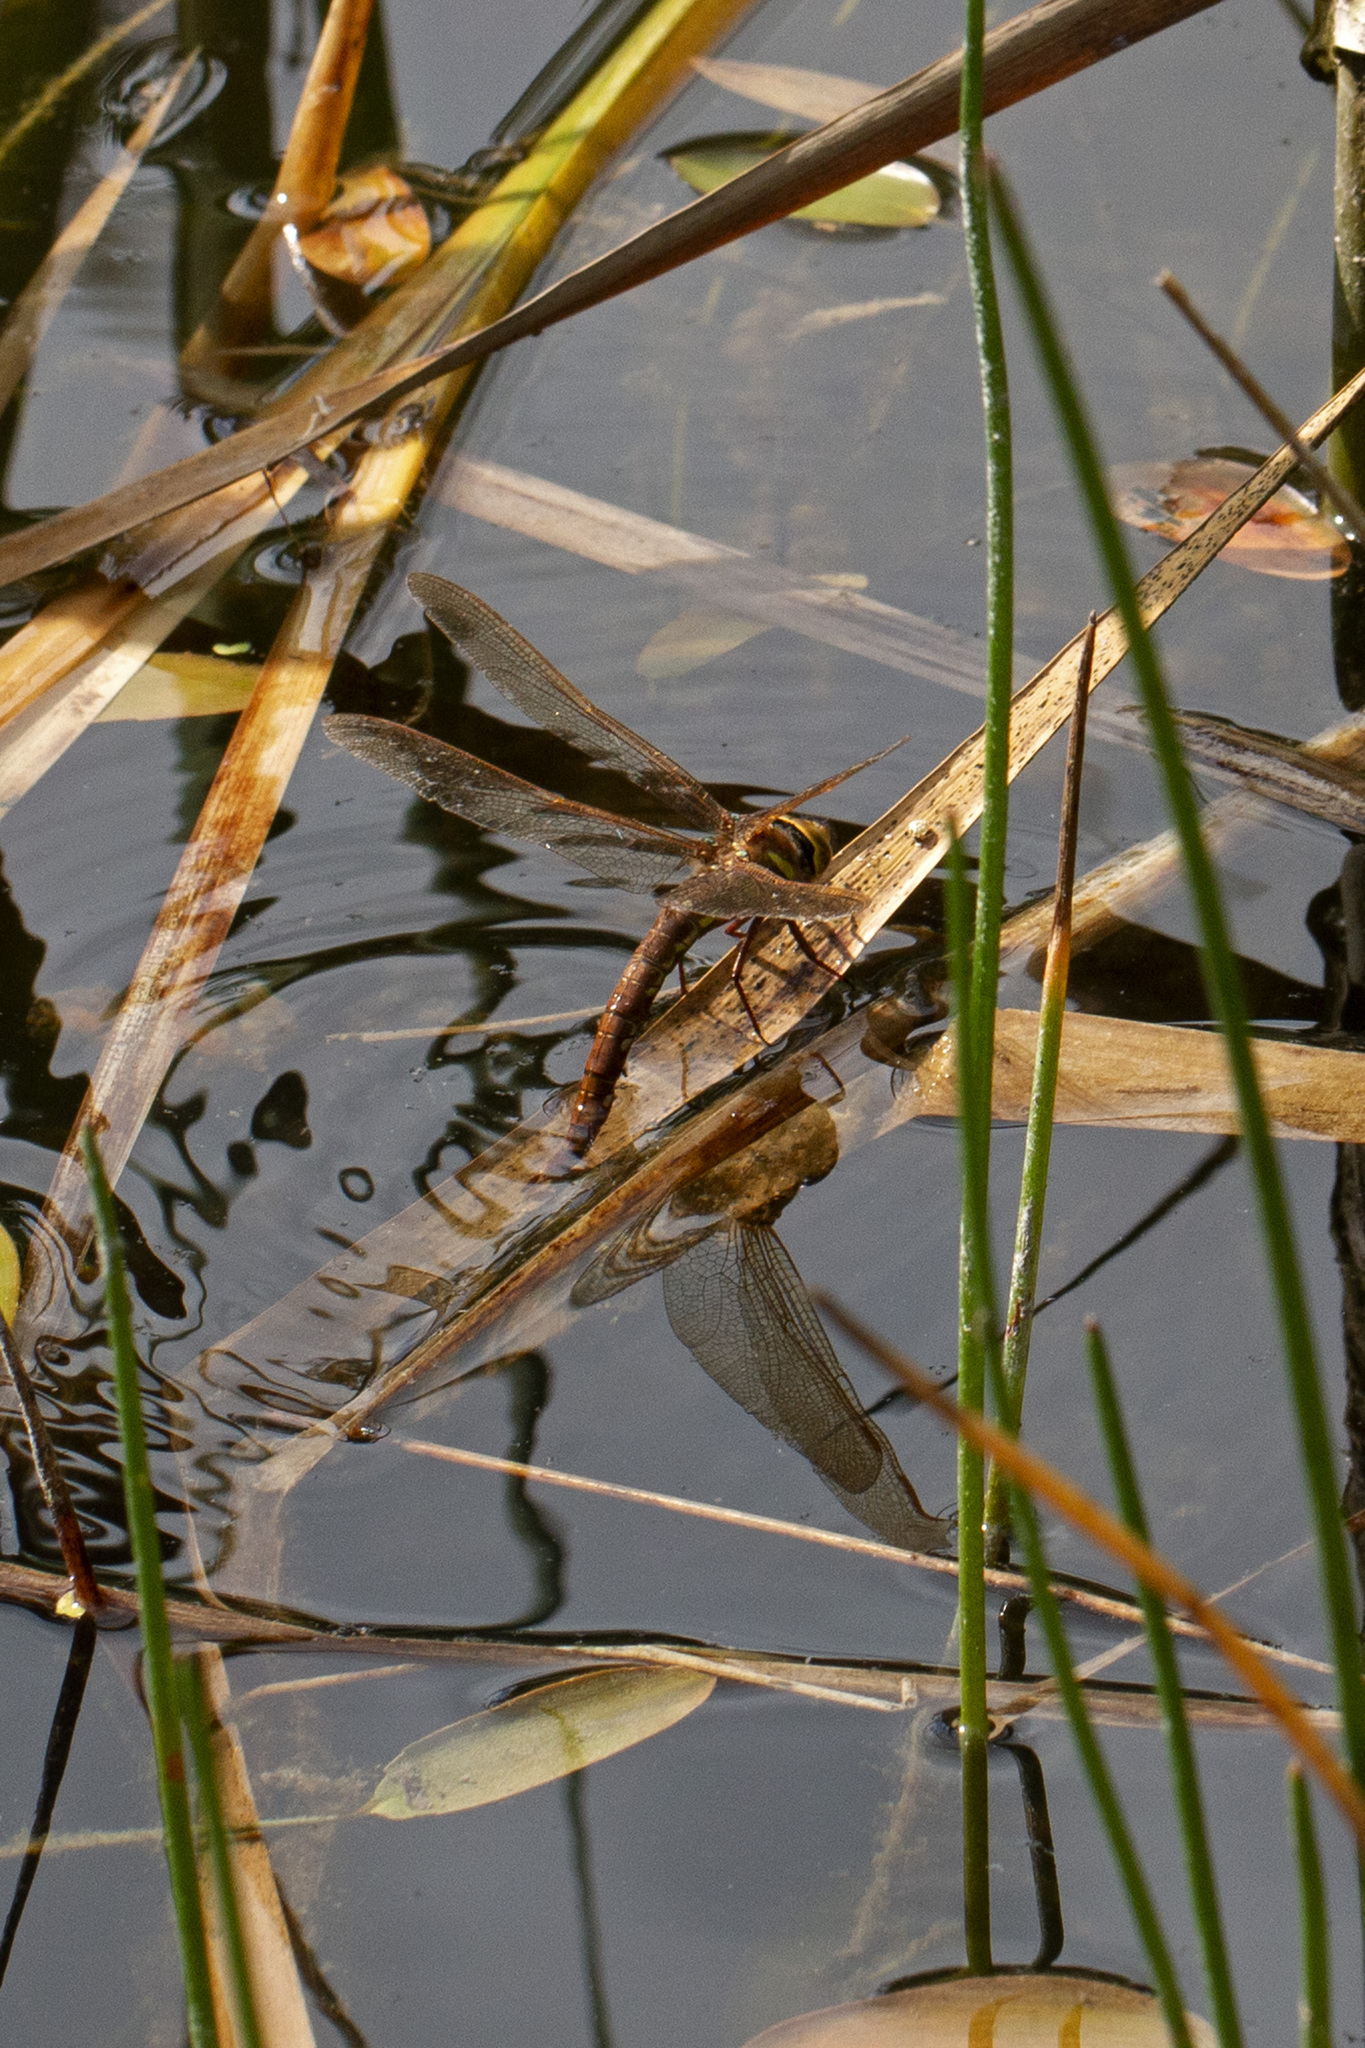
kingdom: Animalia
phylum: Arthropoda
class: Insecta
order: Odonata
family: Aeshnidae
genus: Aeshna
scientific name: Aeshna grandis
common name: Brown hawker
